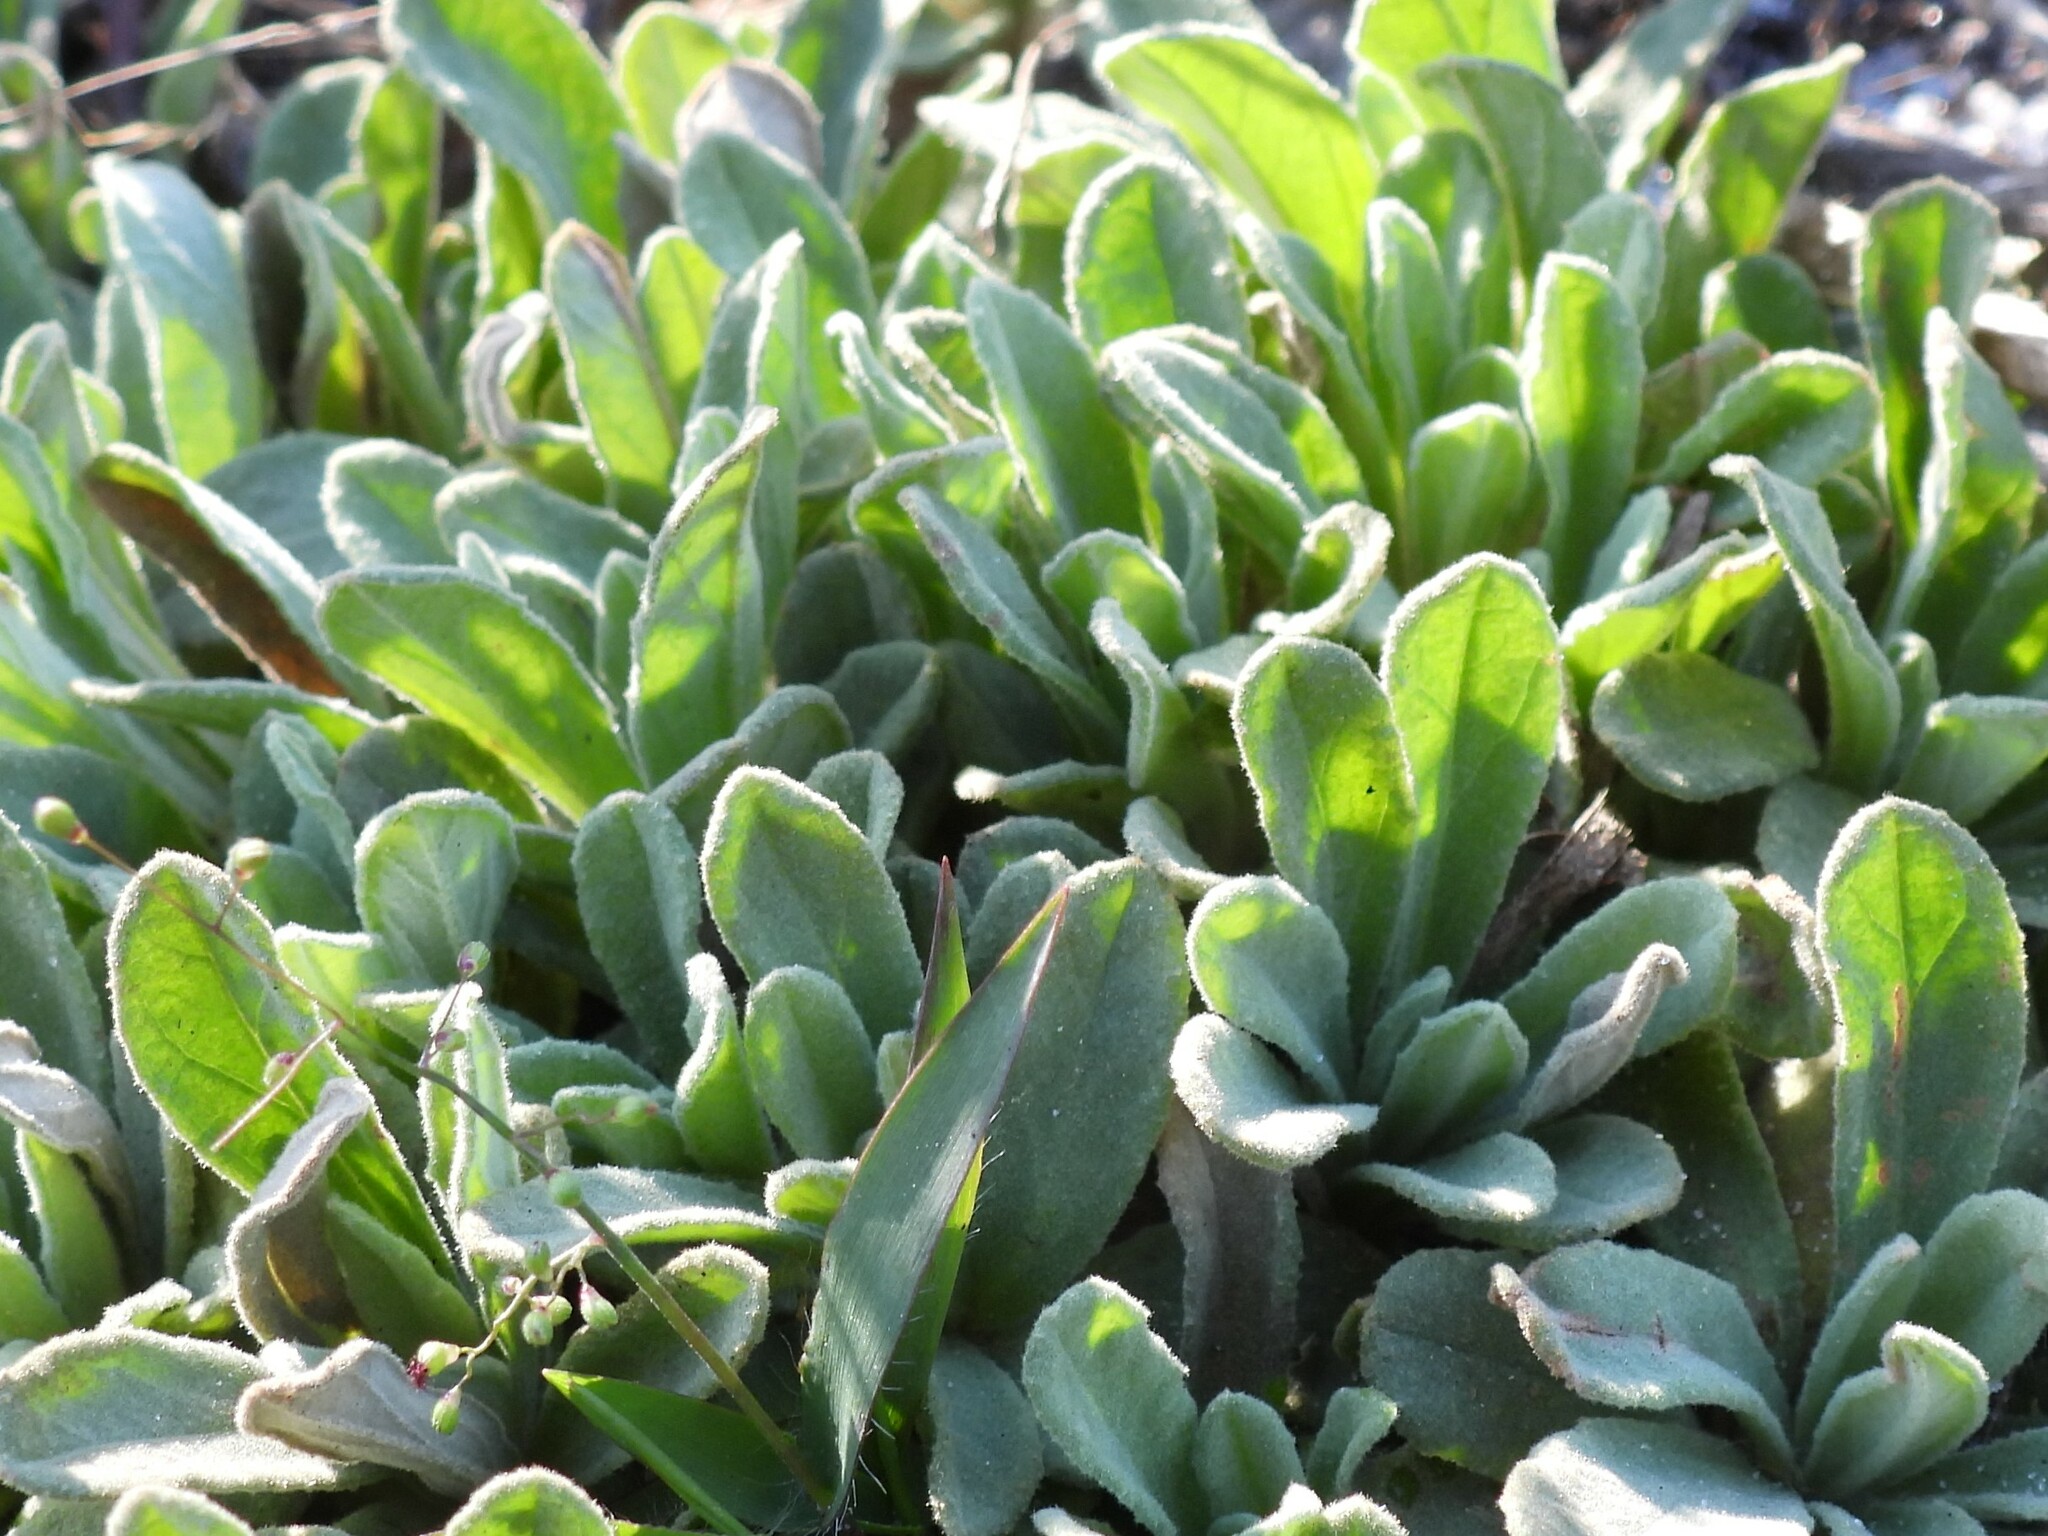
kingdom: Plantae
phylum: Tracheophyta
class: Magnoliopsida
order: Malvales
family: Cistaceae
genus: Crocanthemum
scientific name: Crocanthemum nashii
